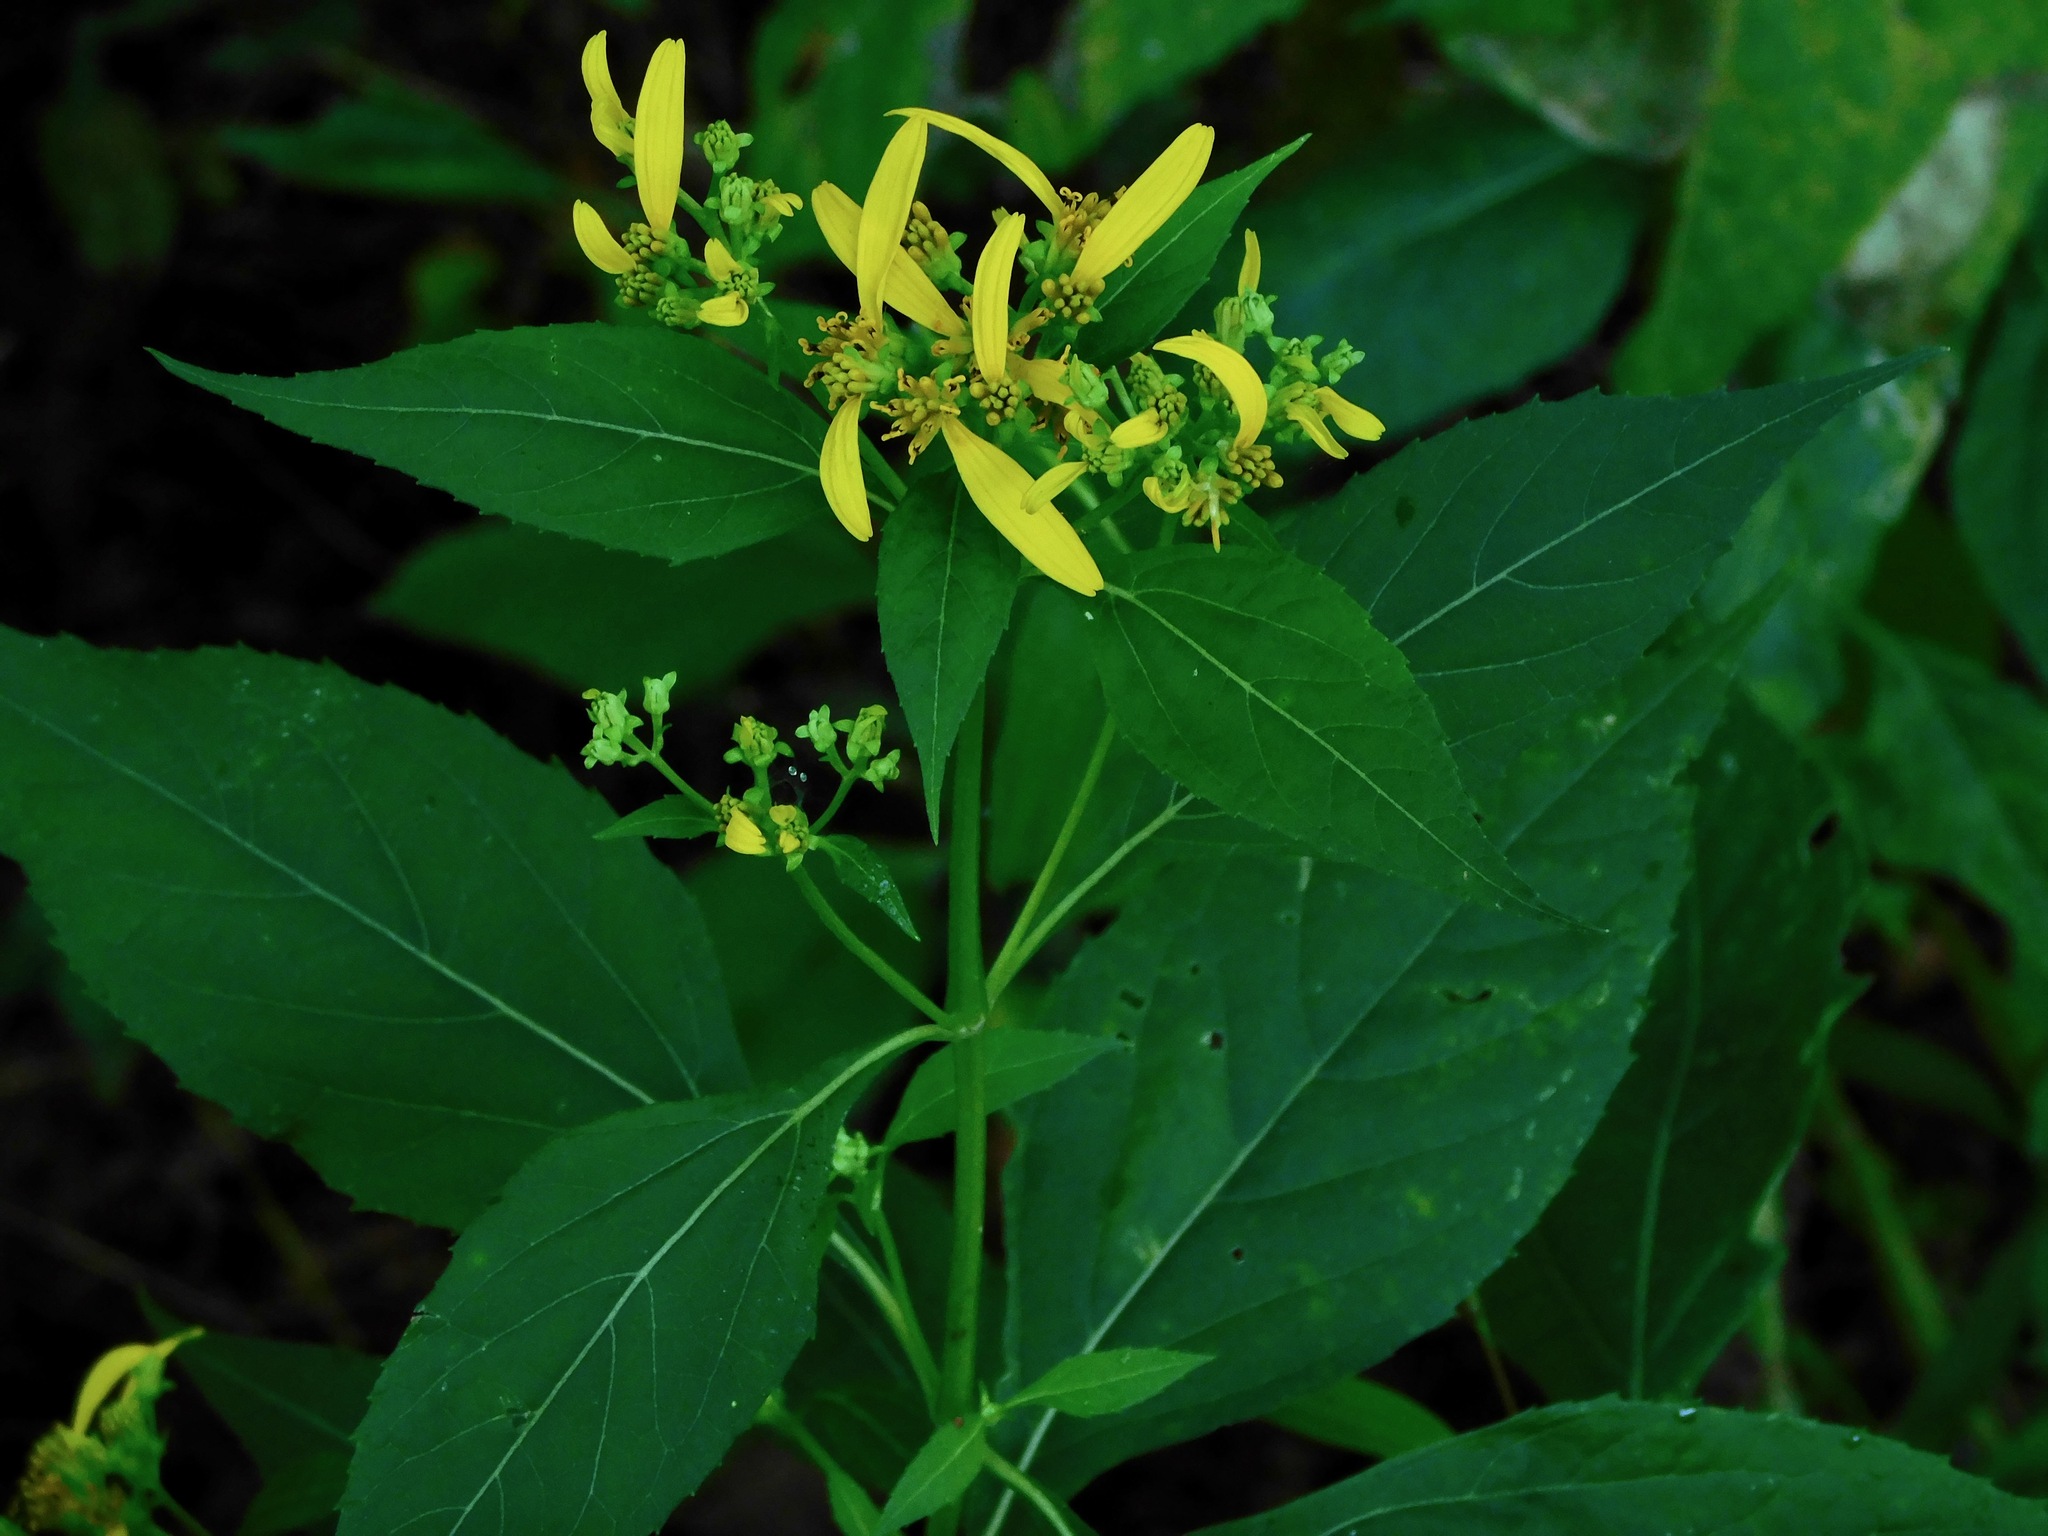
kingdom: Plantae
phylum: Tracheophyta
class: Magnoliopsida
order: Asterales
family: Asteraceae
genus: Verbesina
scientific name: Verbesina occidentalis
